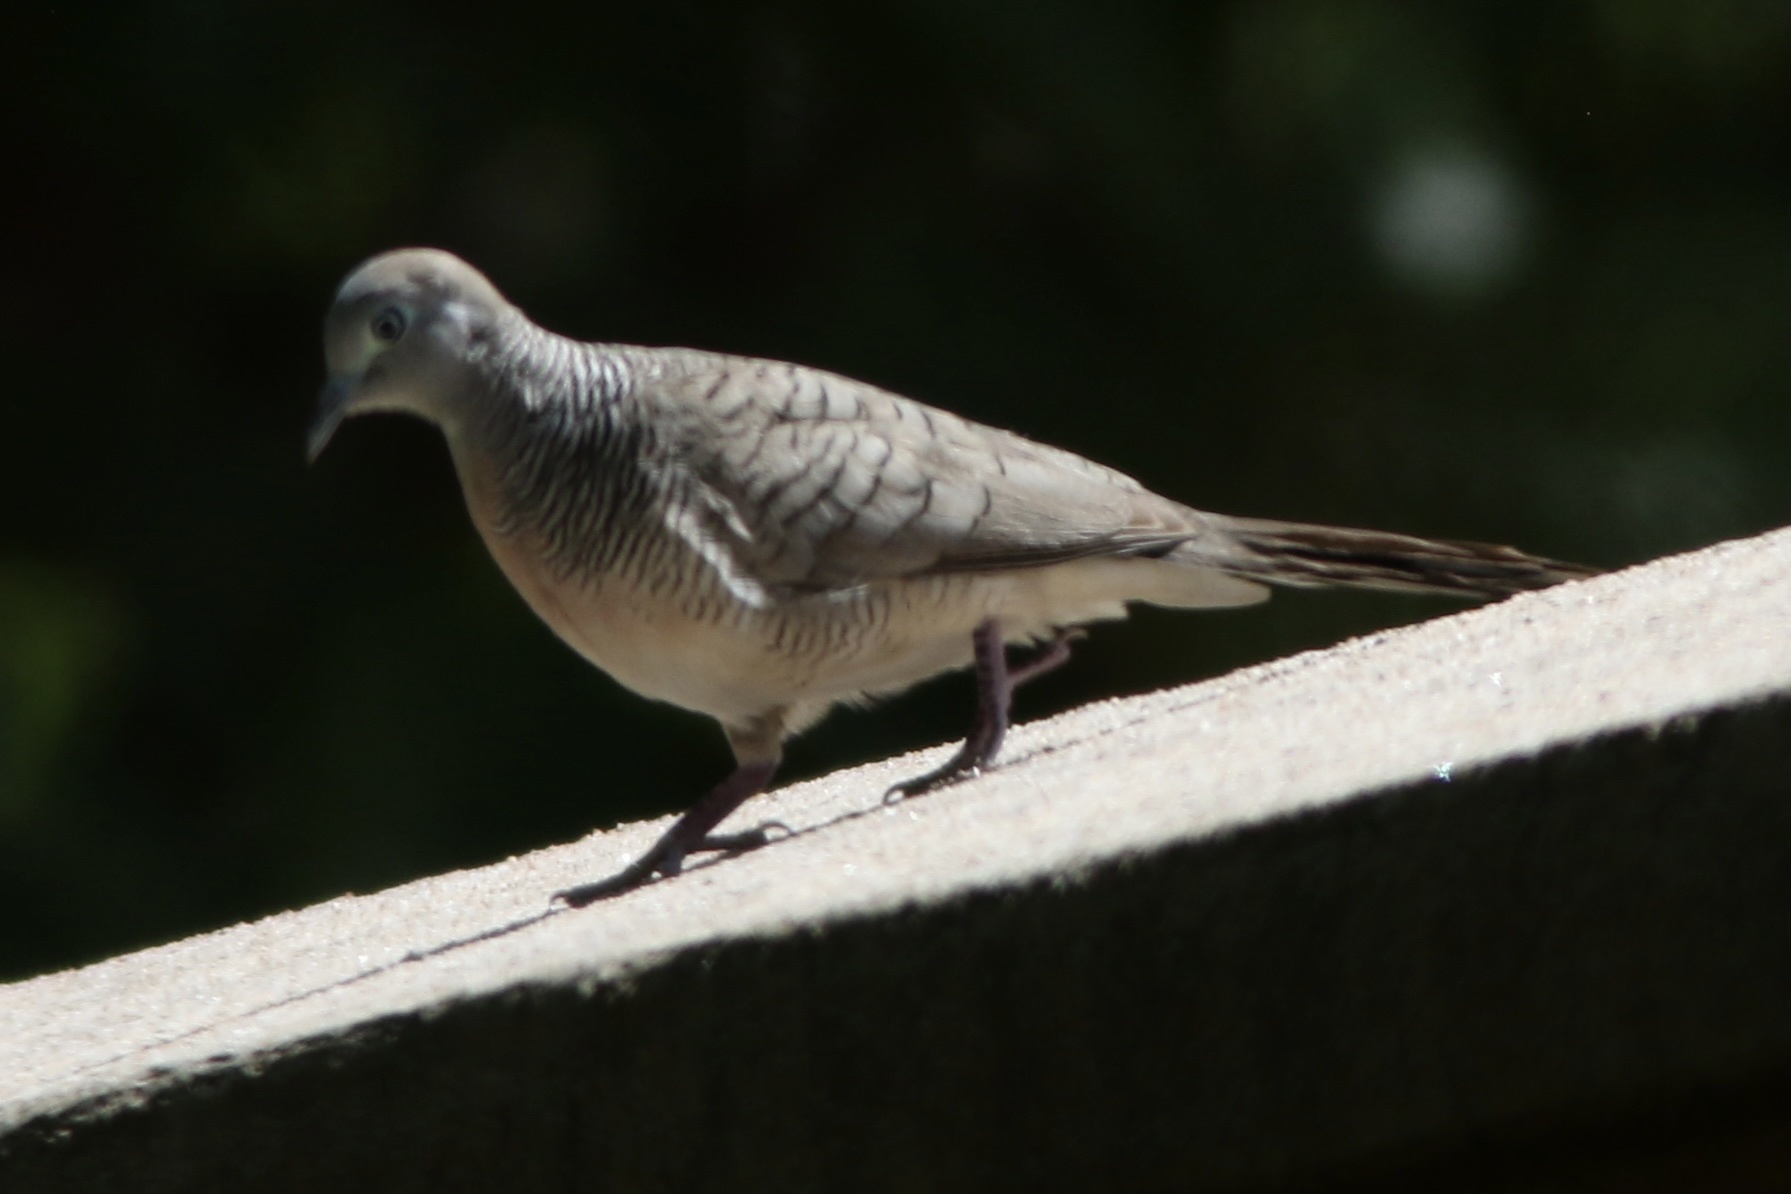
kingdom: Animalia
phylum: Chordata
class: Aves
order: Columbiformes
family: Columbidae
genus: Geopelia
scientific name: Geopelia striata
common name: Zebra dove
